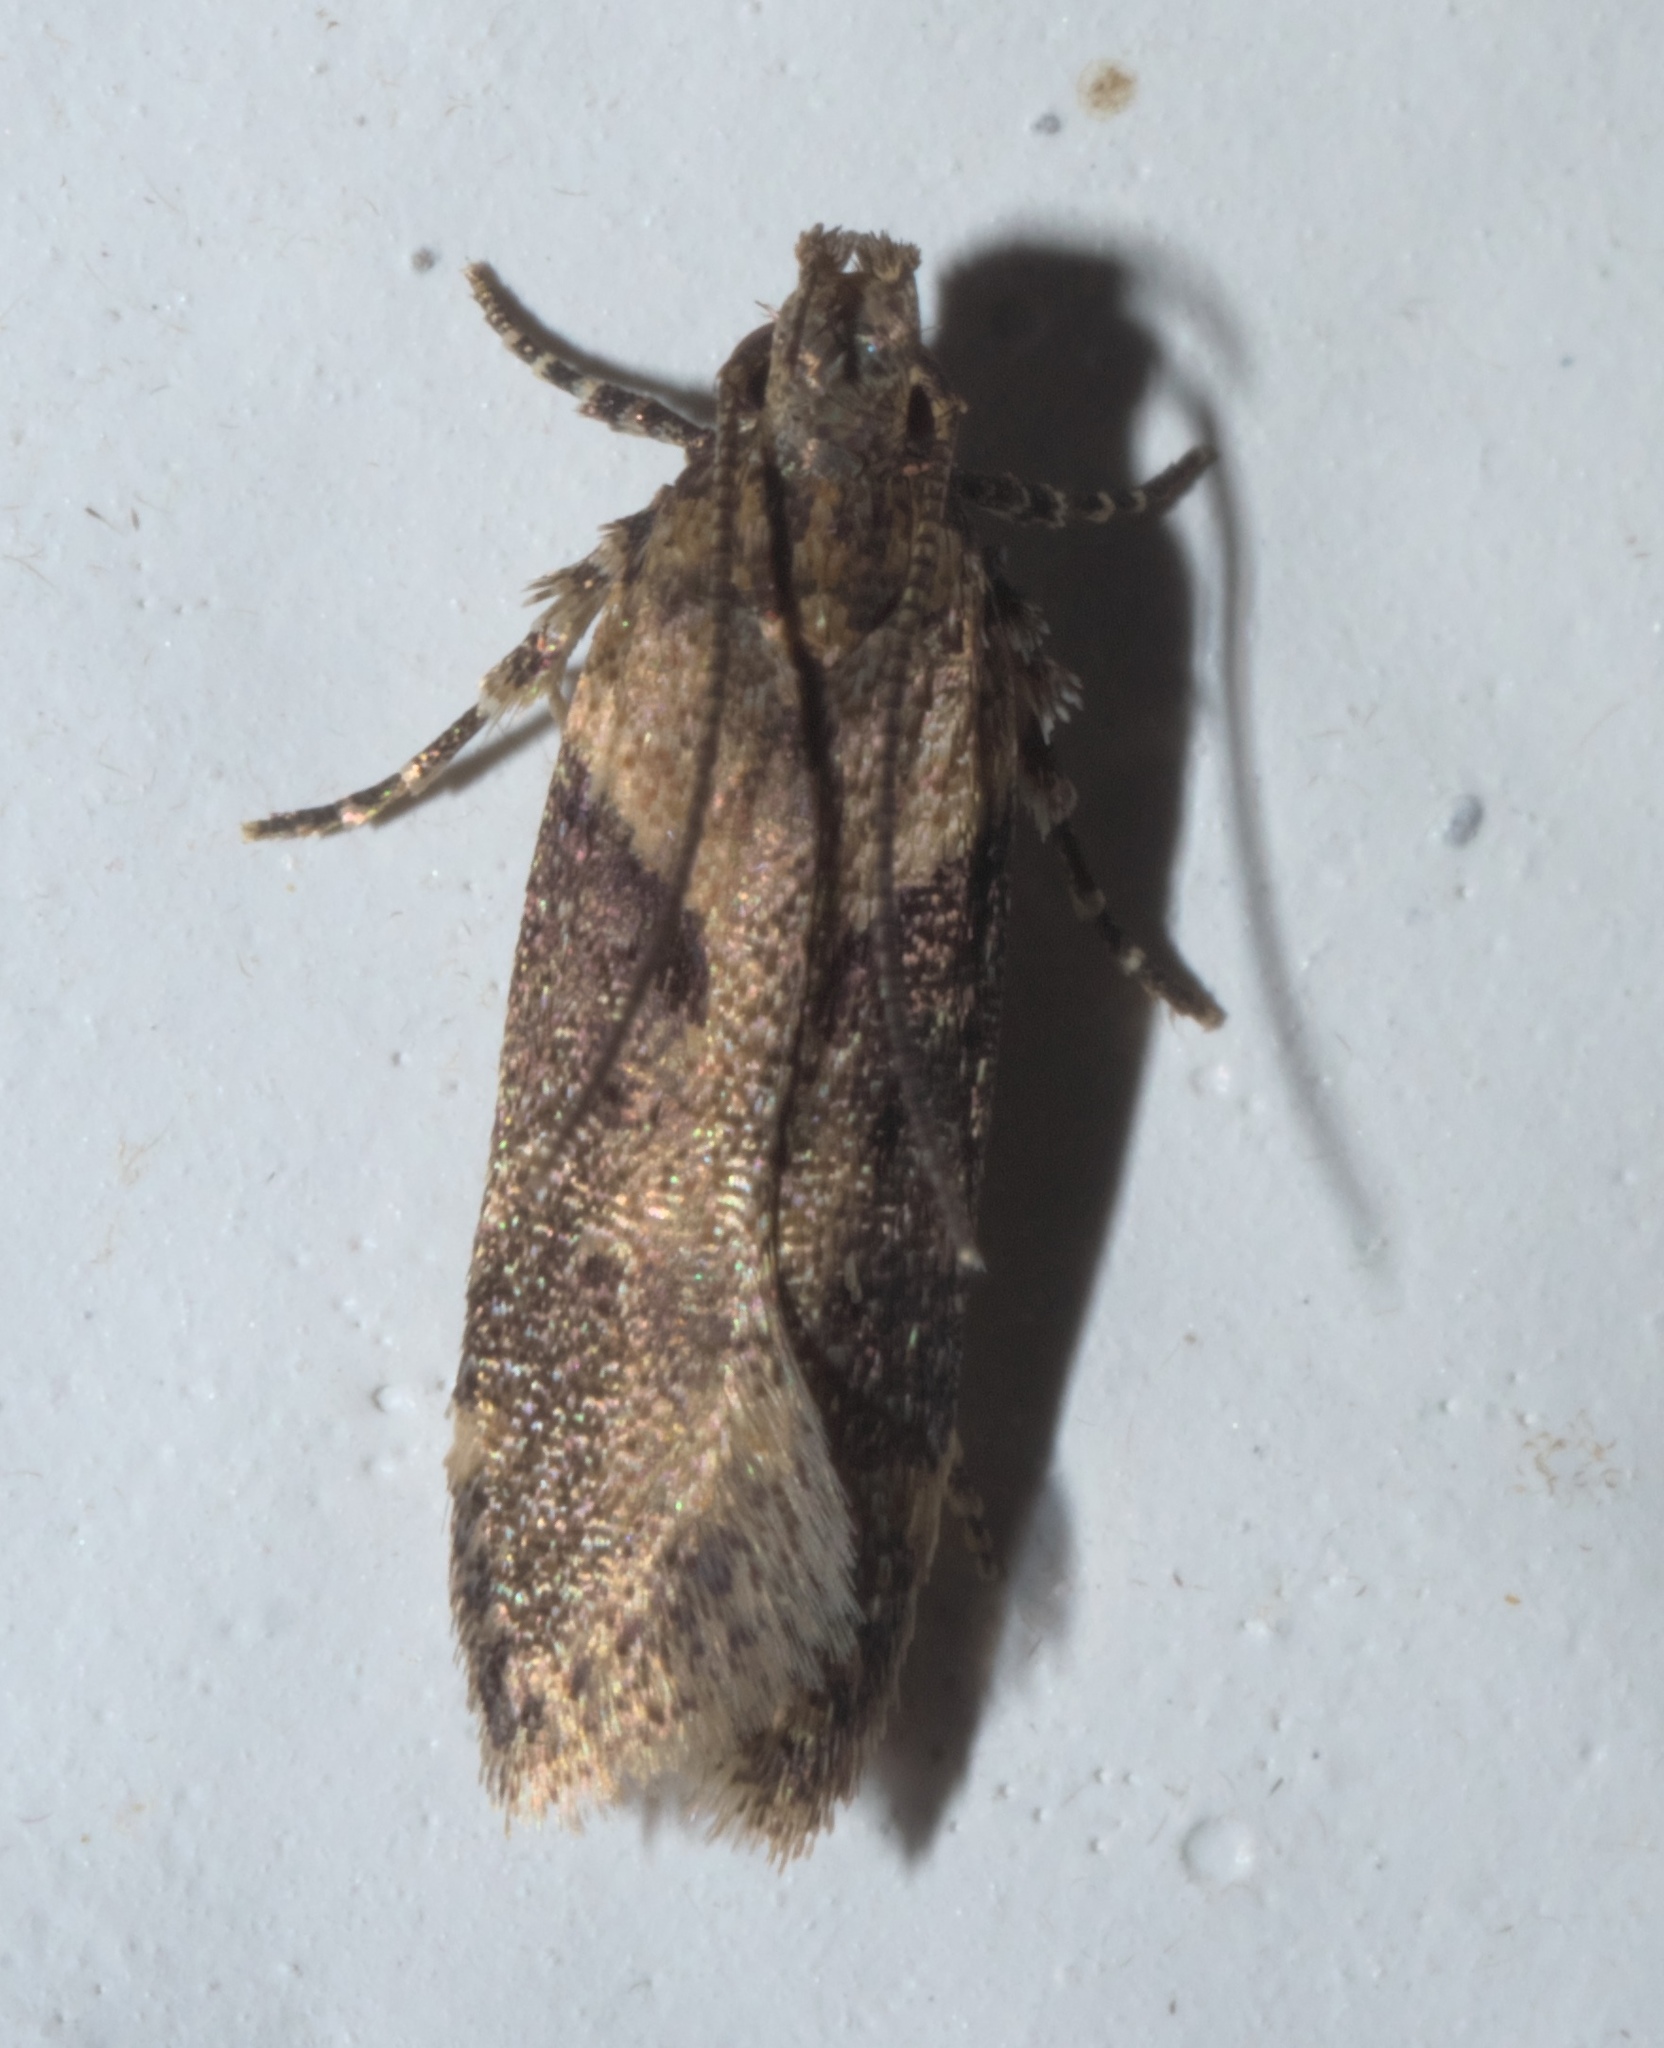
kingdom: Animalia
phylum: Arthropoda
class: Insecta
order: Lepidoptera
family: Gelechiidae
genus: Chionodes
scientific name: Chionodes mediofuscella
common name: Black-smudged chionodes moth
